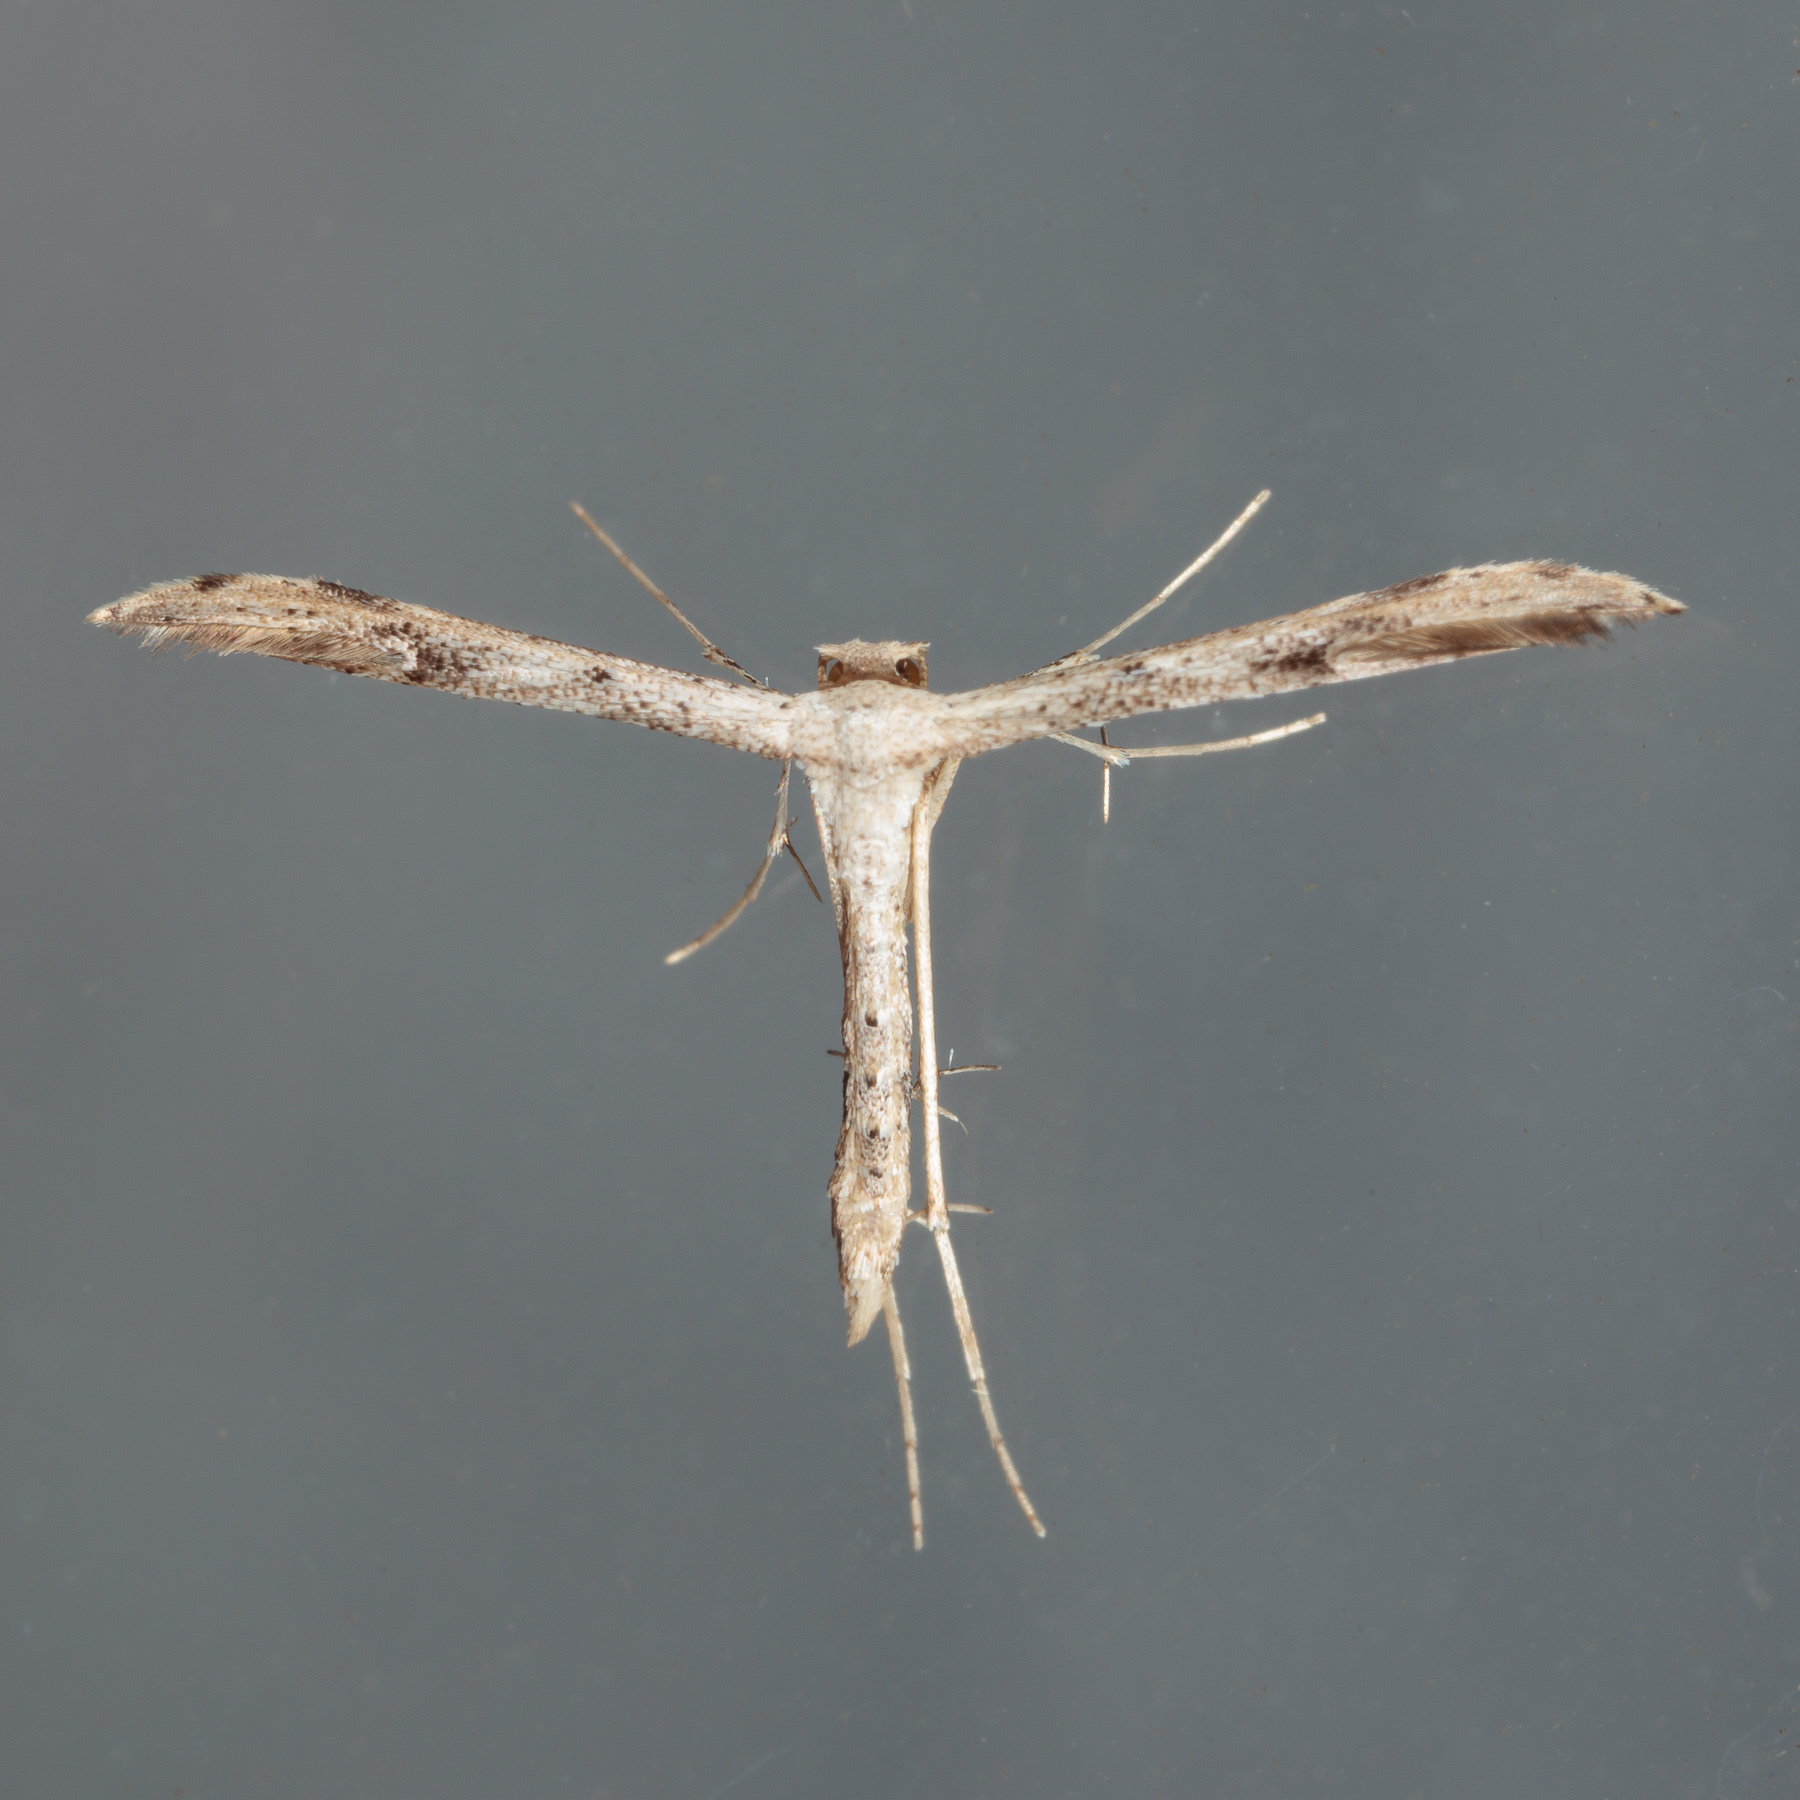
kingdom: Animalia
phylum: Arthropoda
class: Insecta
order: Lepidoptera
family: Pterophoridae
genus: Adaina
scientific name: Adaina ambrosiae
